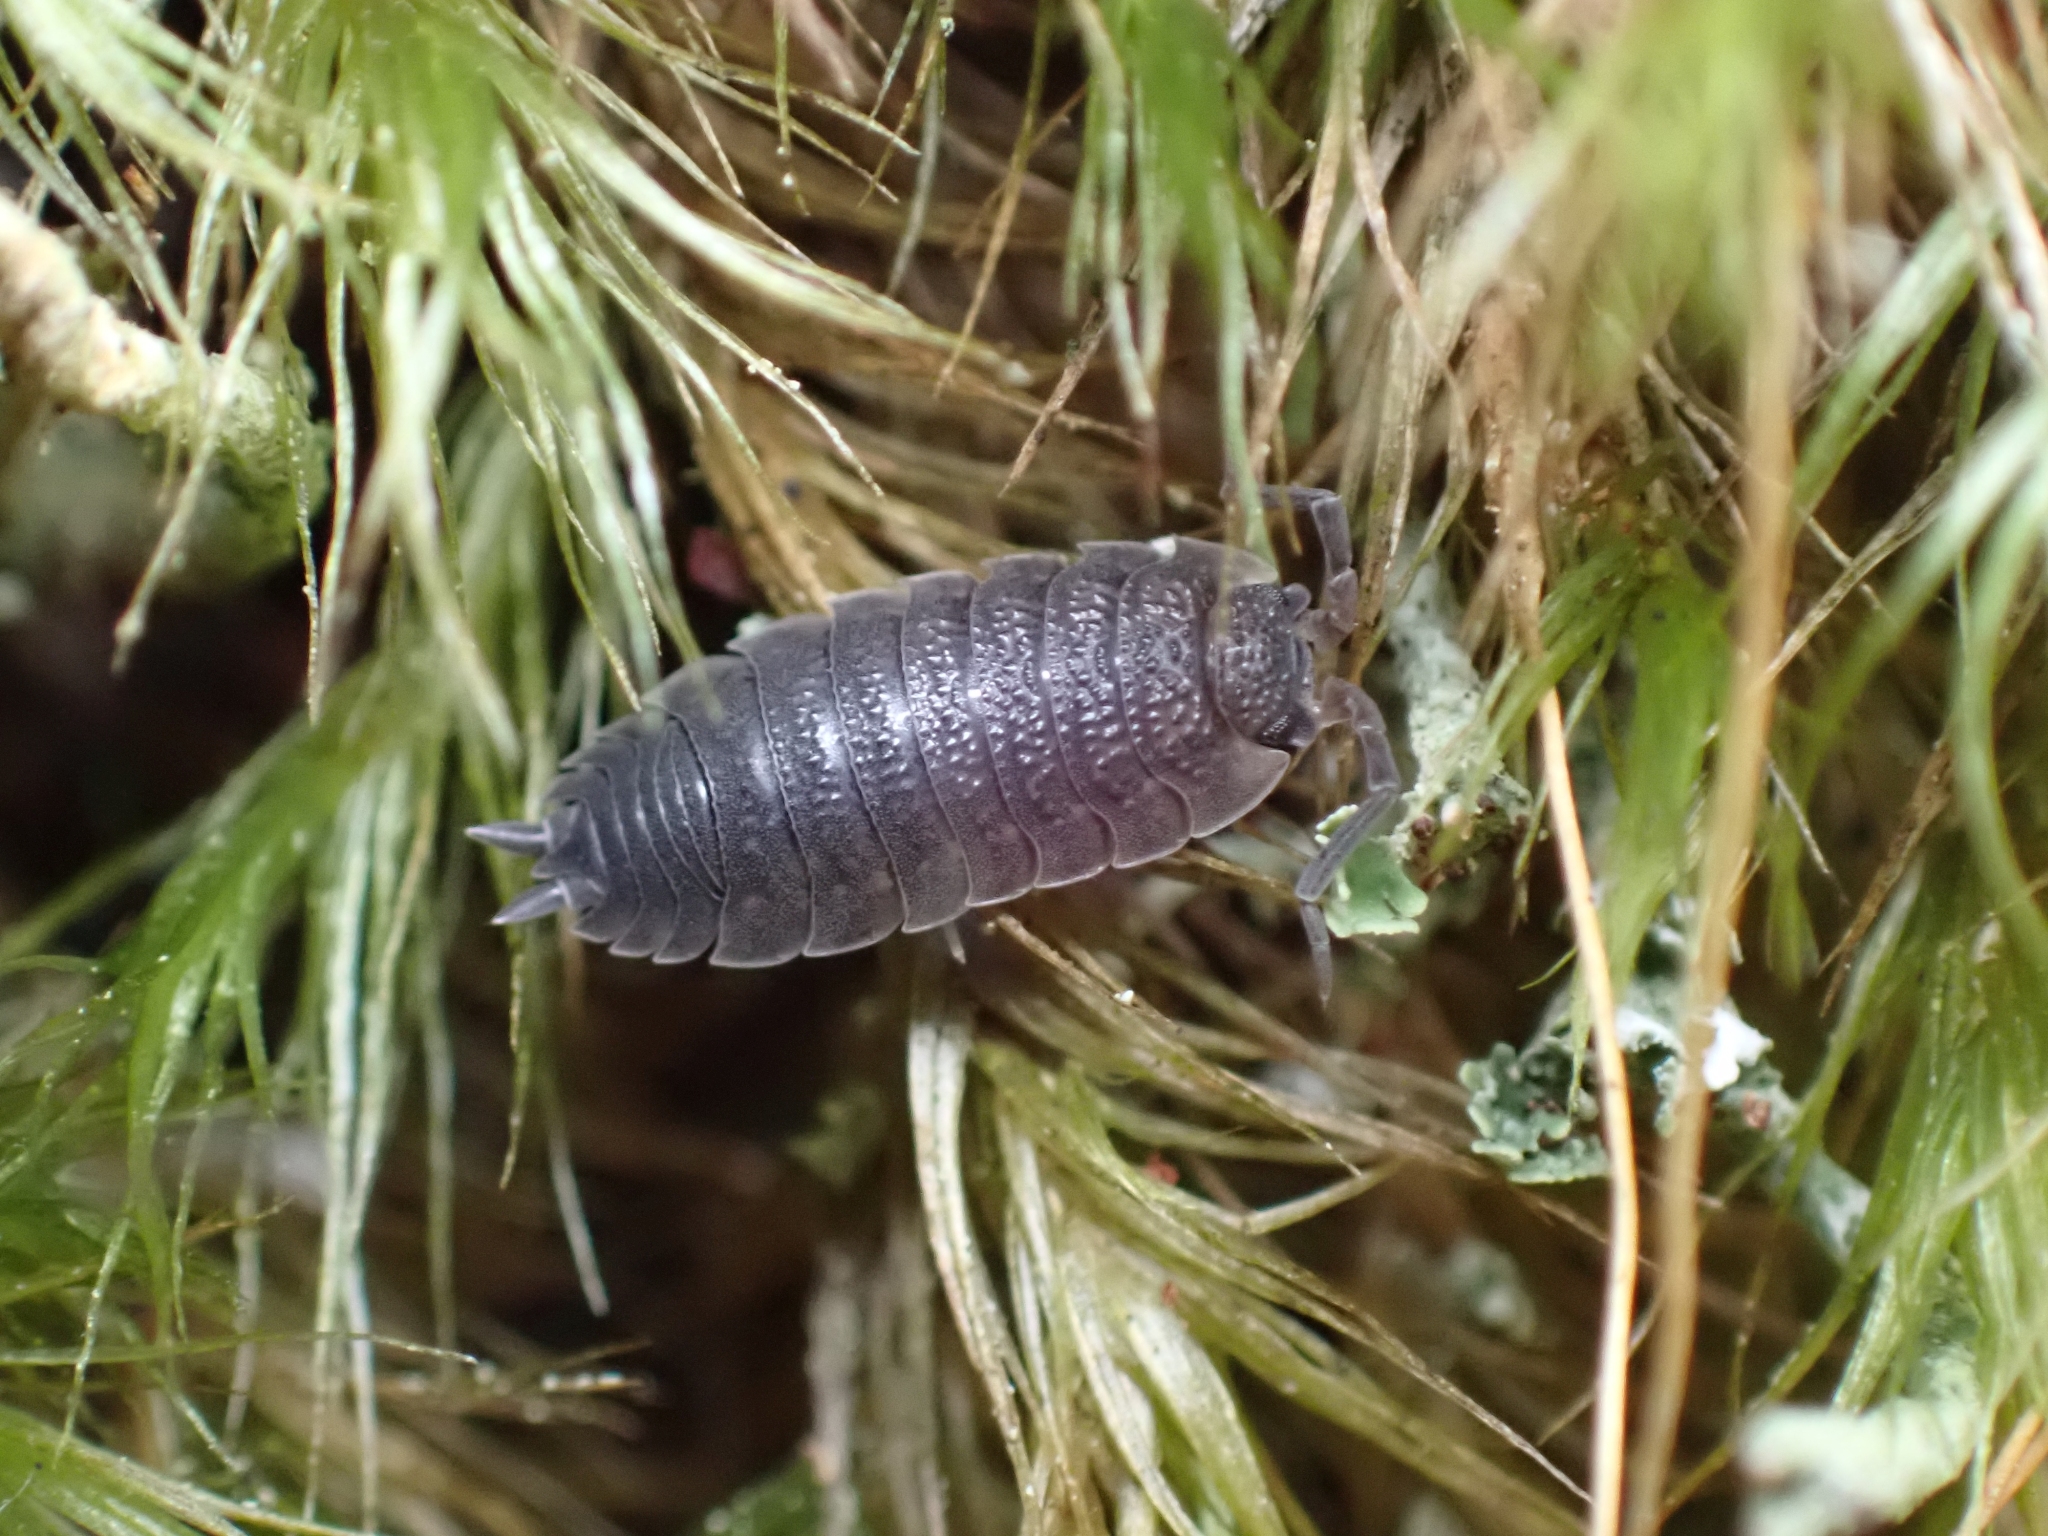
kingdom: Animalia
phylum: Arthropoda
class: Malacostraca
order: Isopoda
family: Porcellionidae
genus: Porcellio
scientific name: Porcellio scaber
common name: Common rough woodlouse
